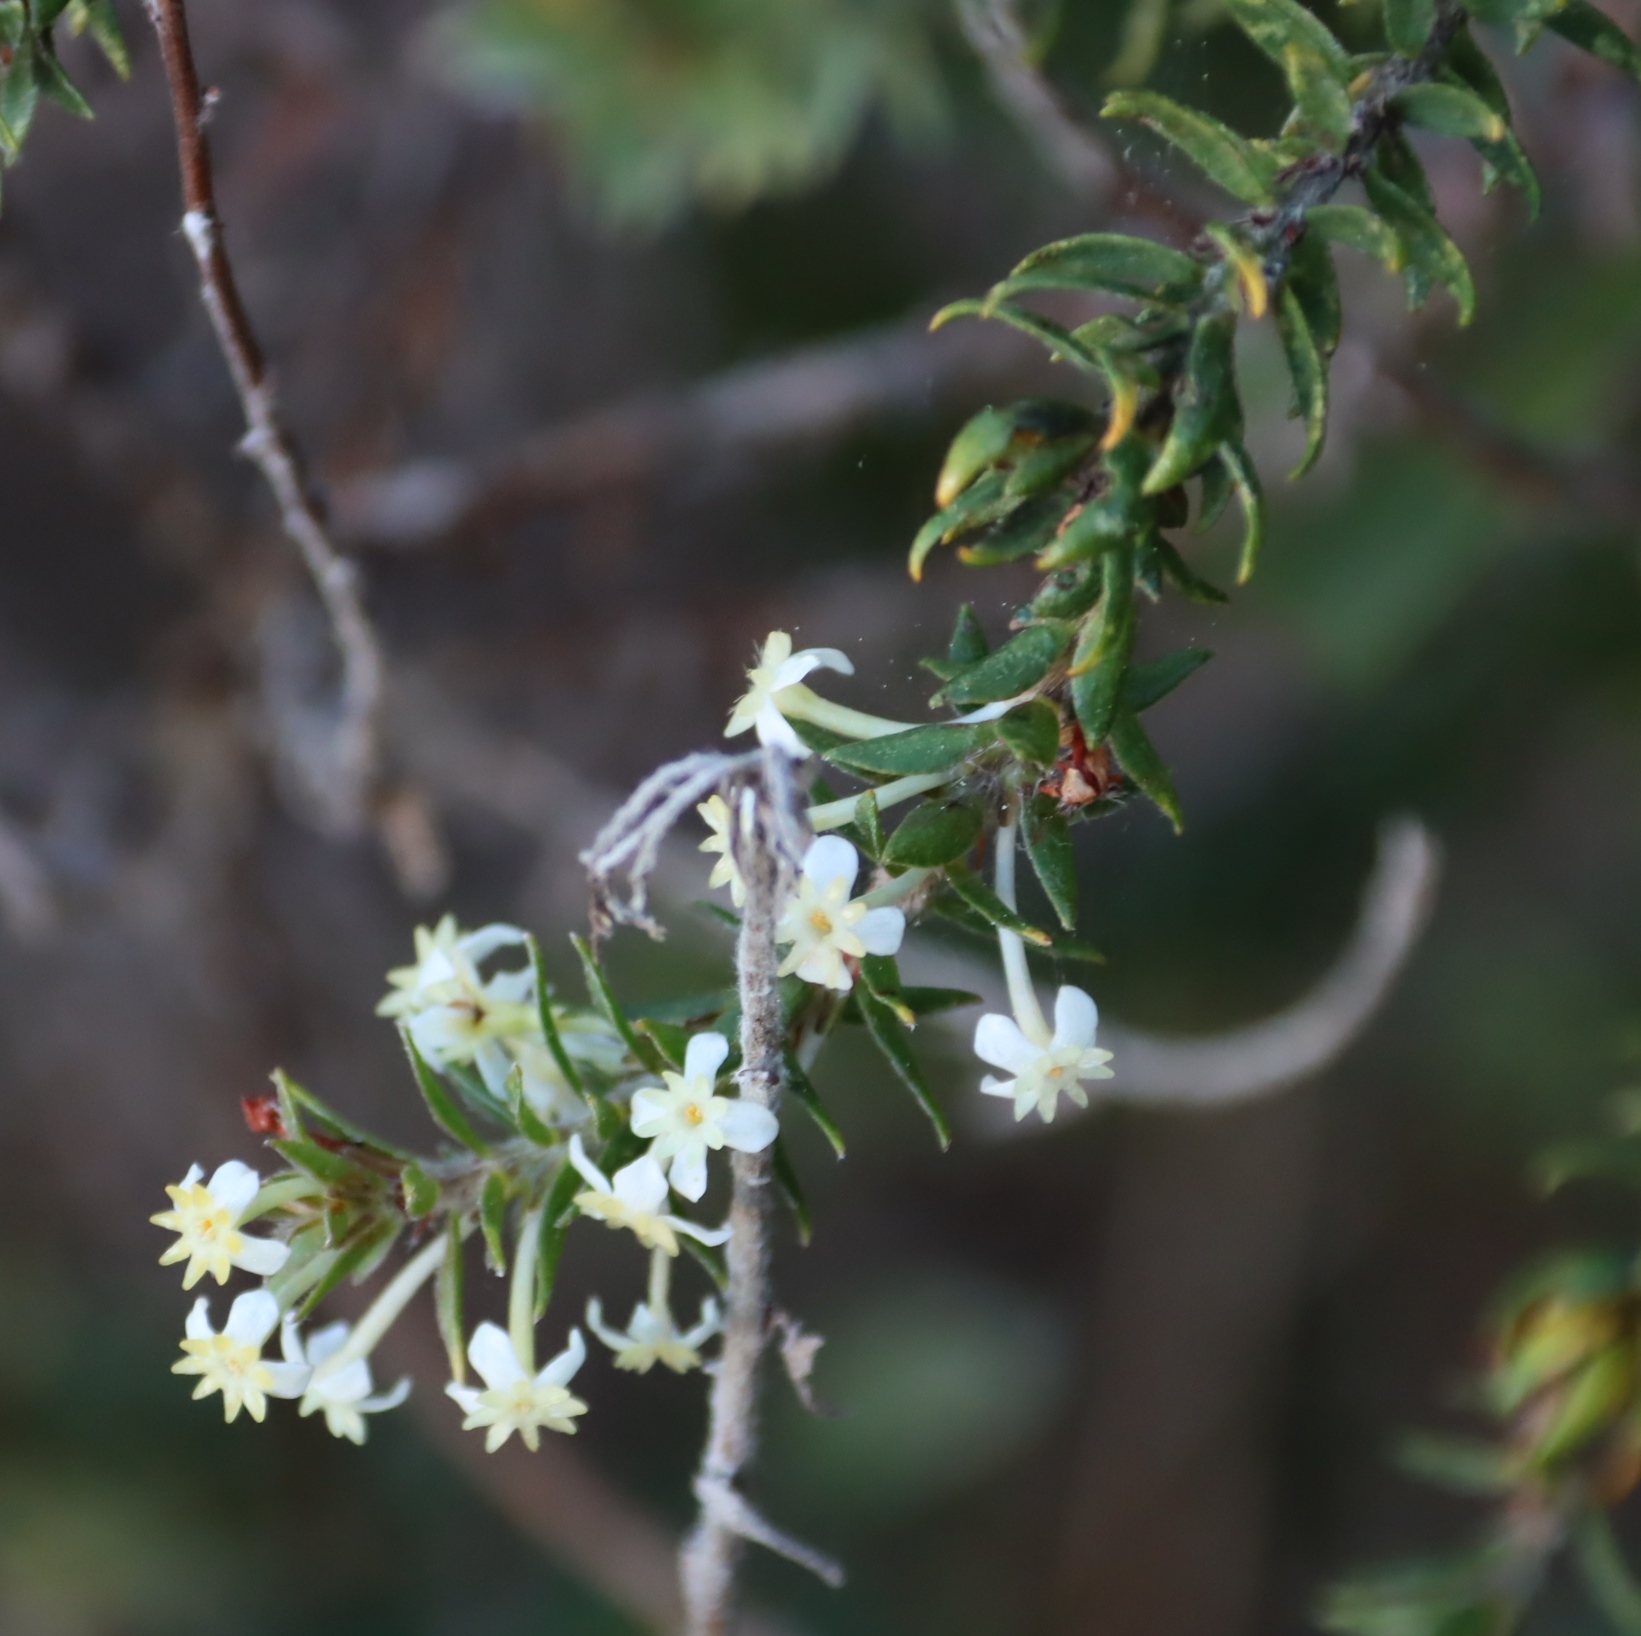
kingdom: Plantae
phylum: Tracheophyta
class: Magnoliopsida
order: Malvales
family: Thymelaeaceae
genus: Struthiola
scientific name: Struthiola hirsuta
